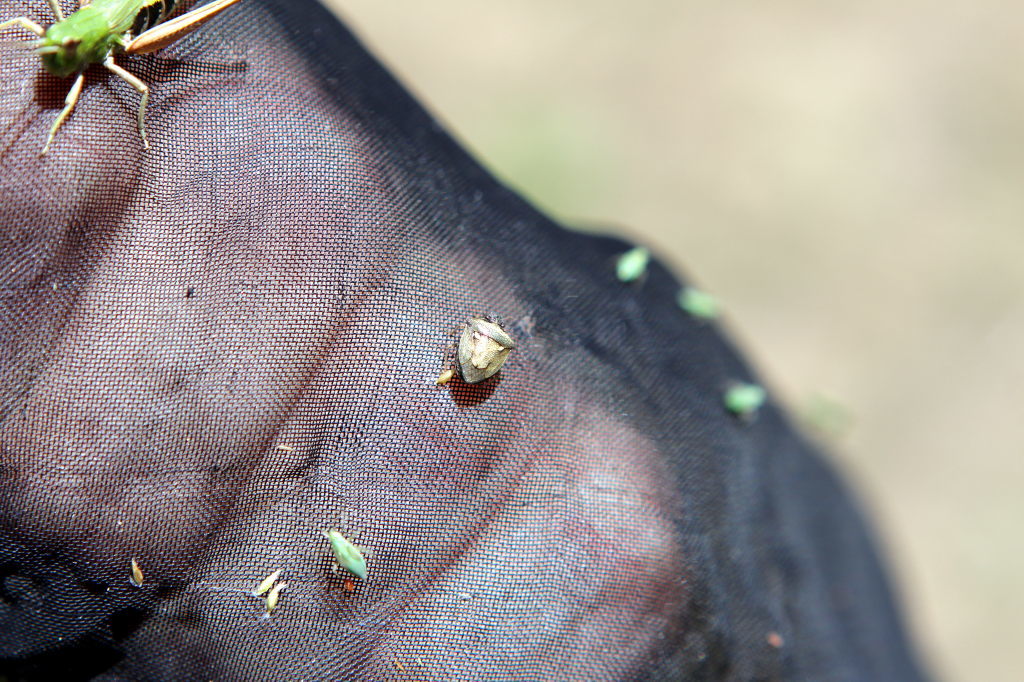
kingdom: Animalia
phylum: Arthropoda
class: Insecta
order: Hemiptera
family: Pentatomidae
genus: Eysarcoris
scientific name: Eysarcoris aeneus
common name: New forest shieldbug
